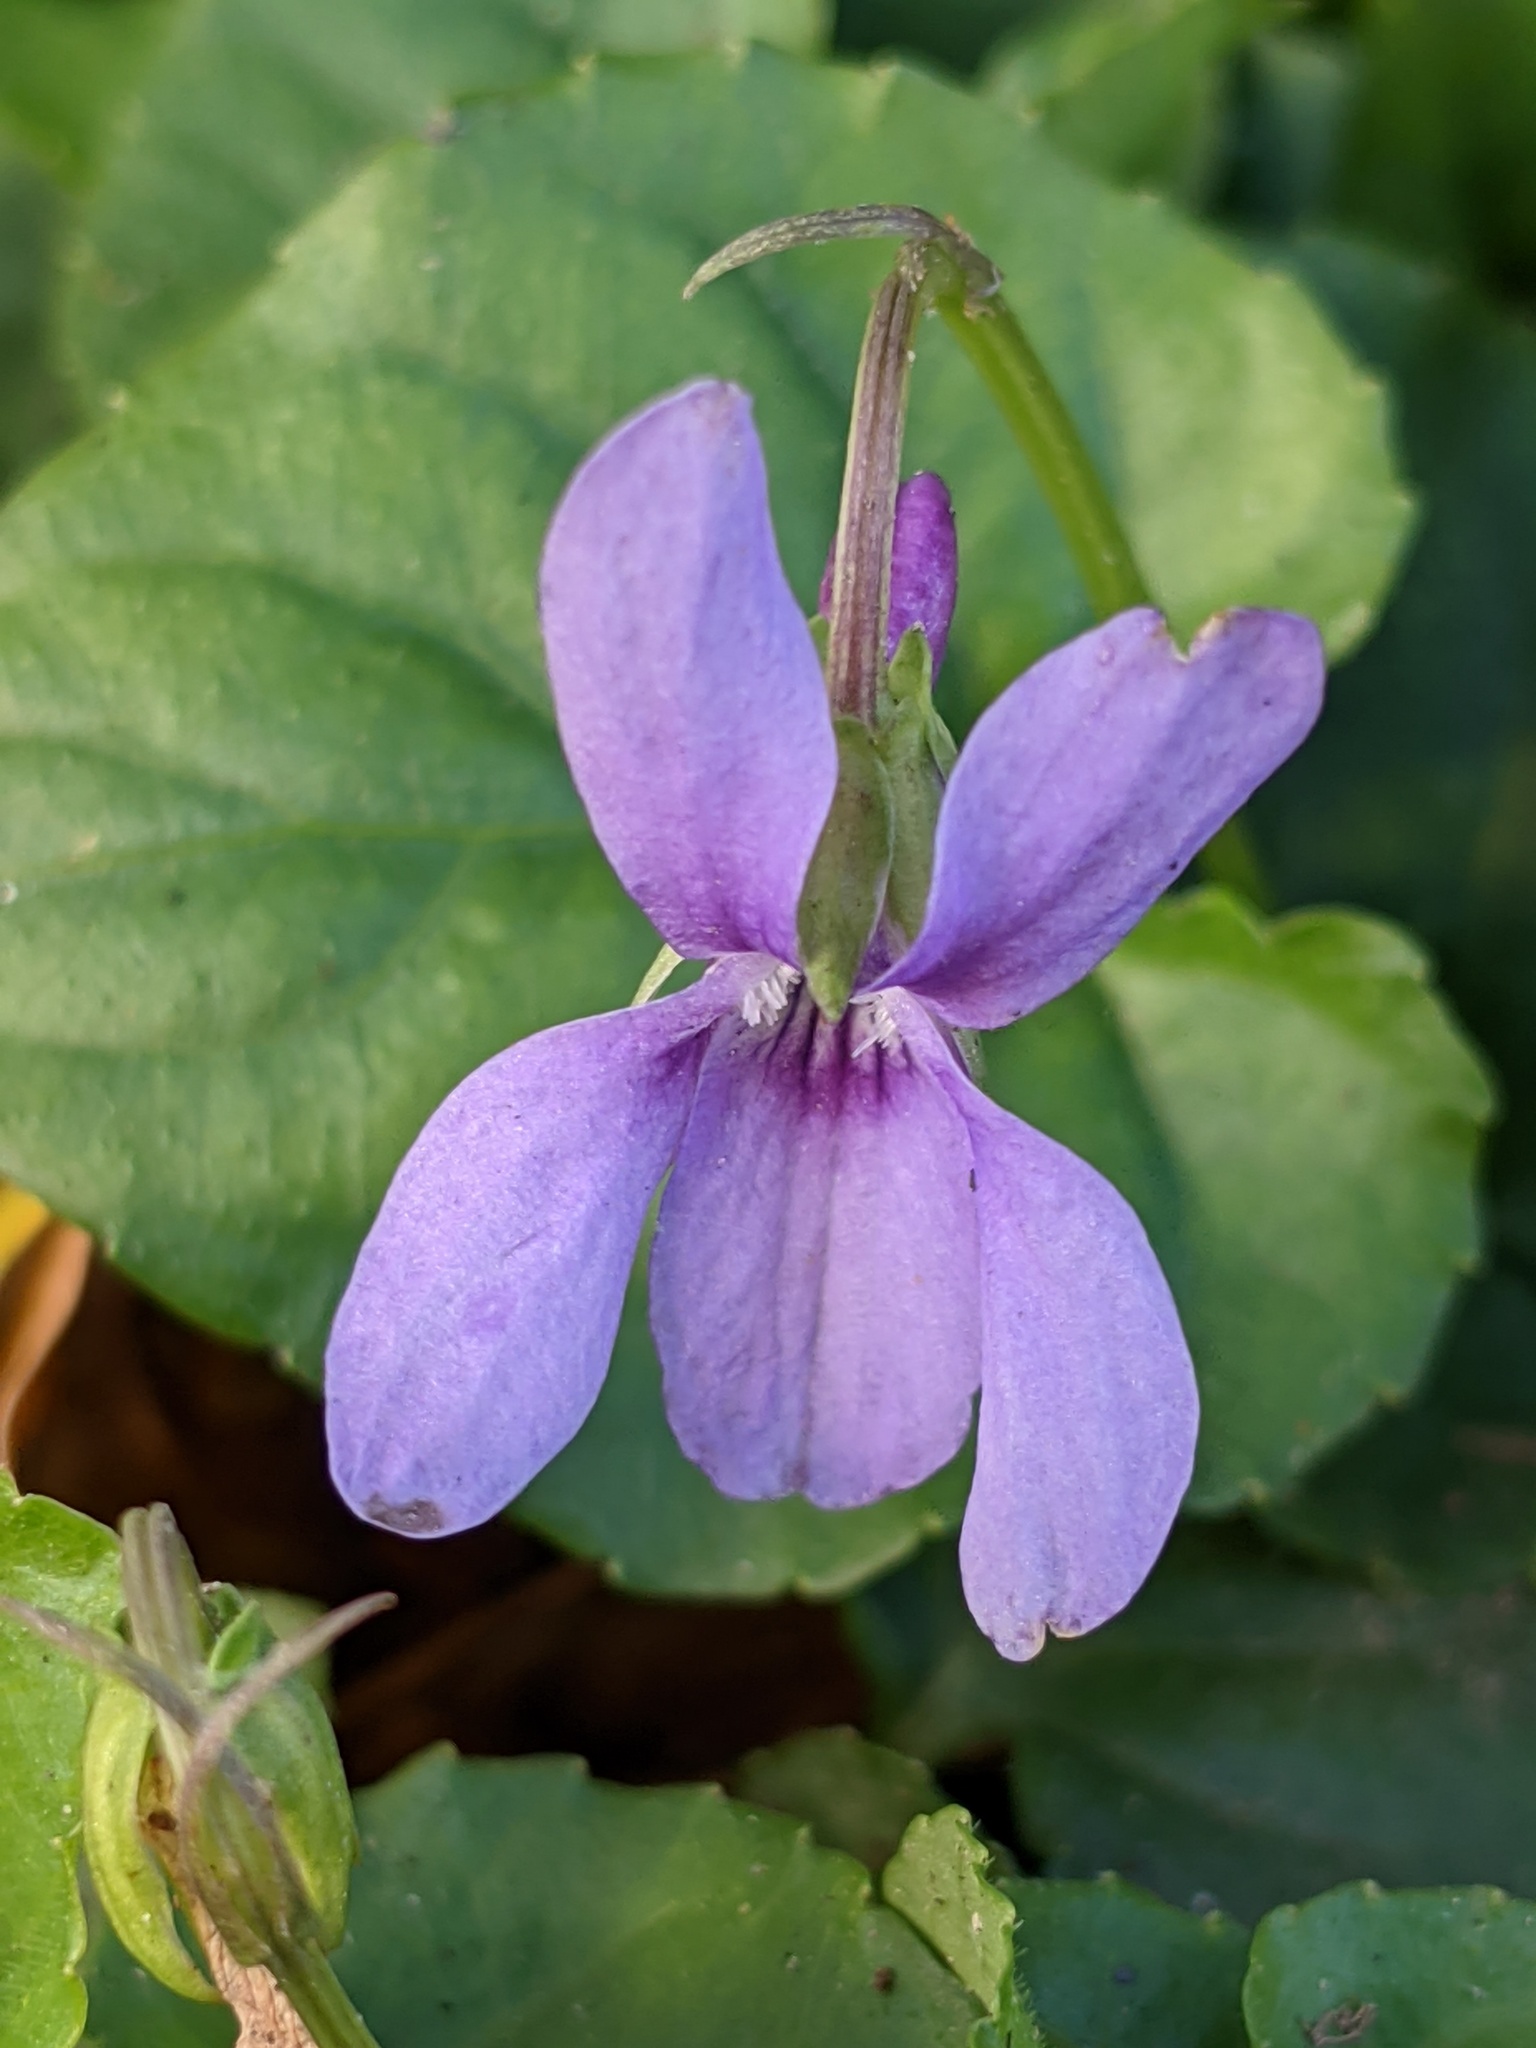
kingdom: Plantae
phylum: Tracheophyta
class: Magnoliopsida
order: Malpighiales
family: Violaceae
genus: Viola
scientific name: Viola reichenbachiana
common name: Early dog-violet
